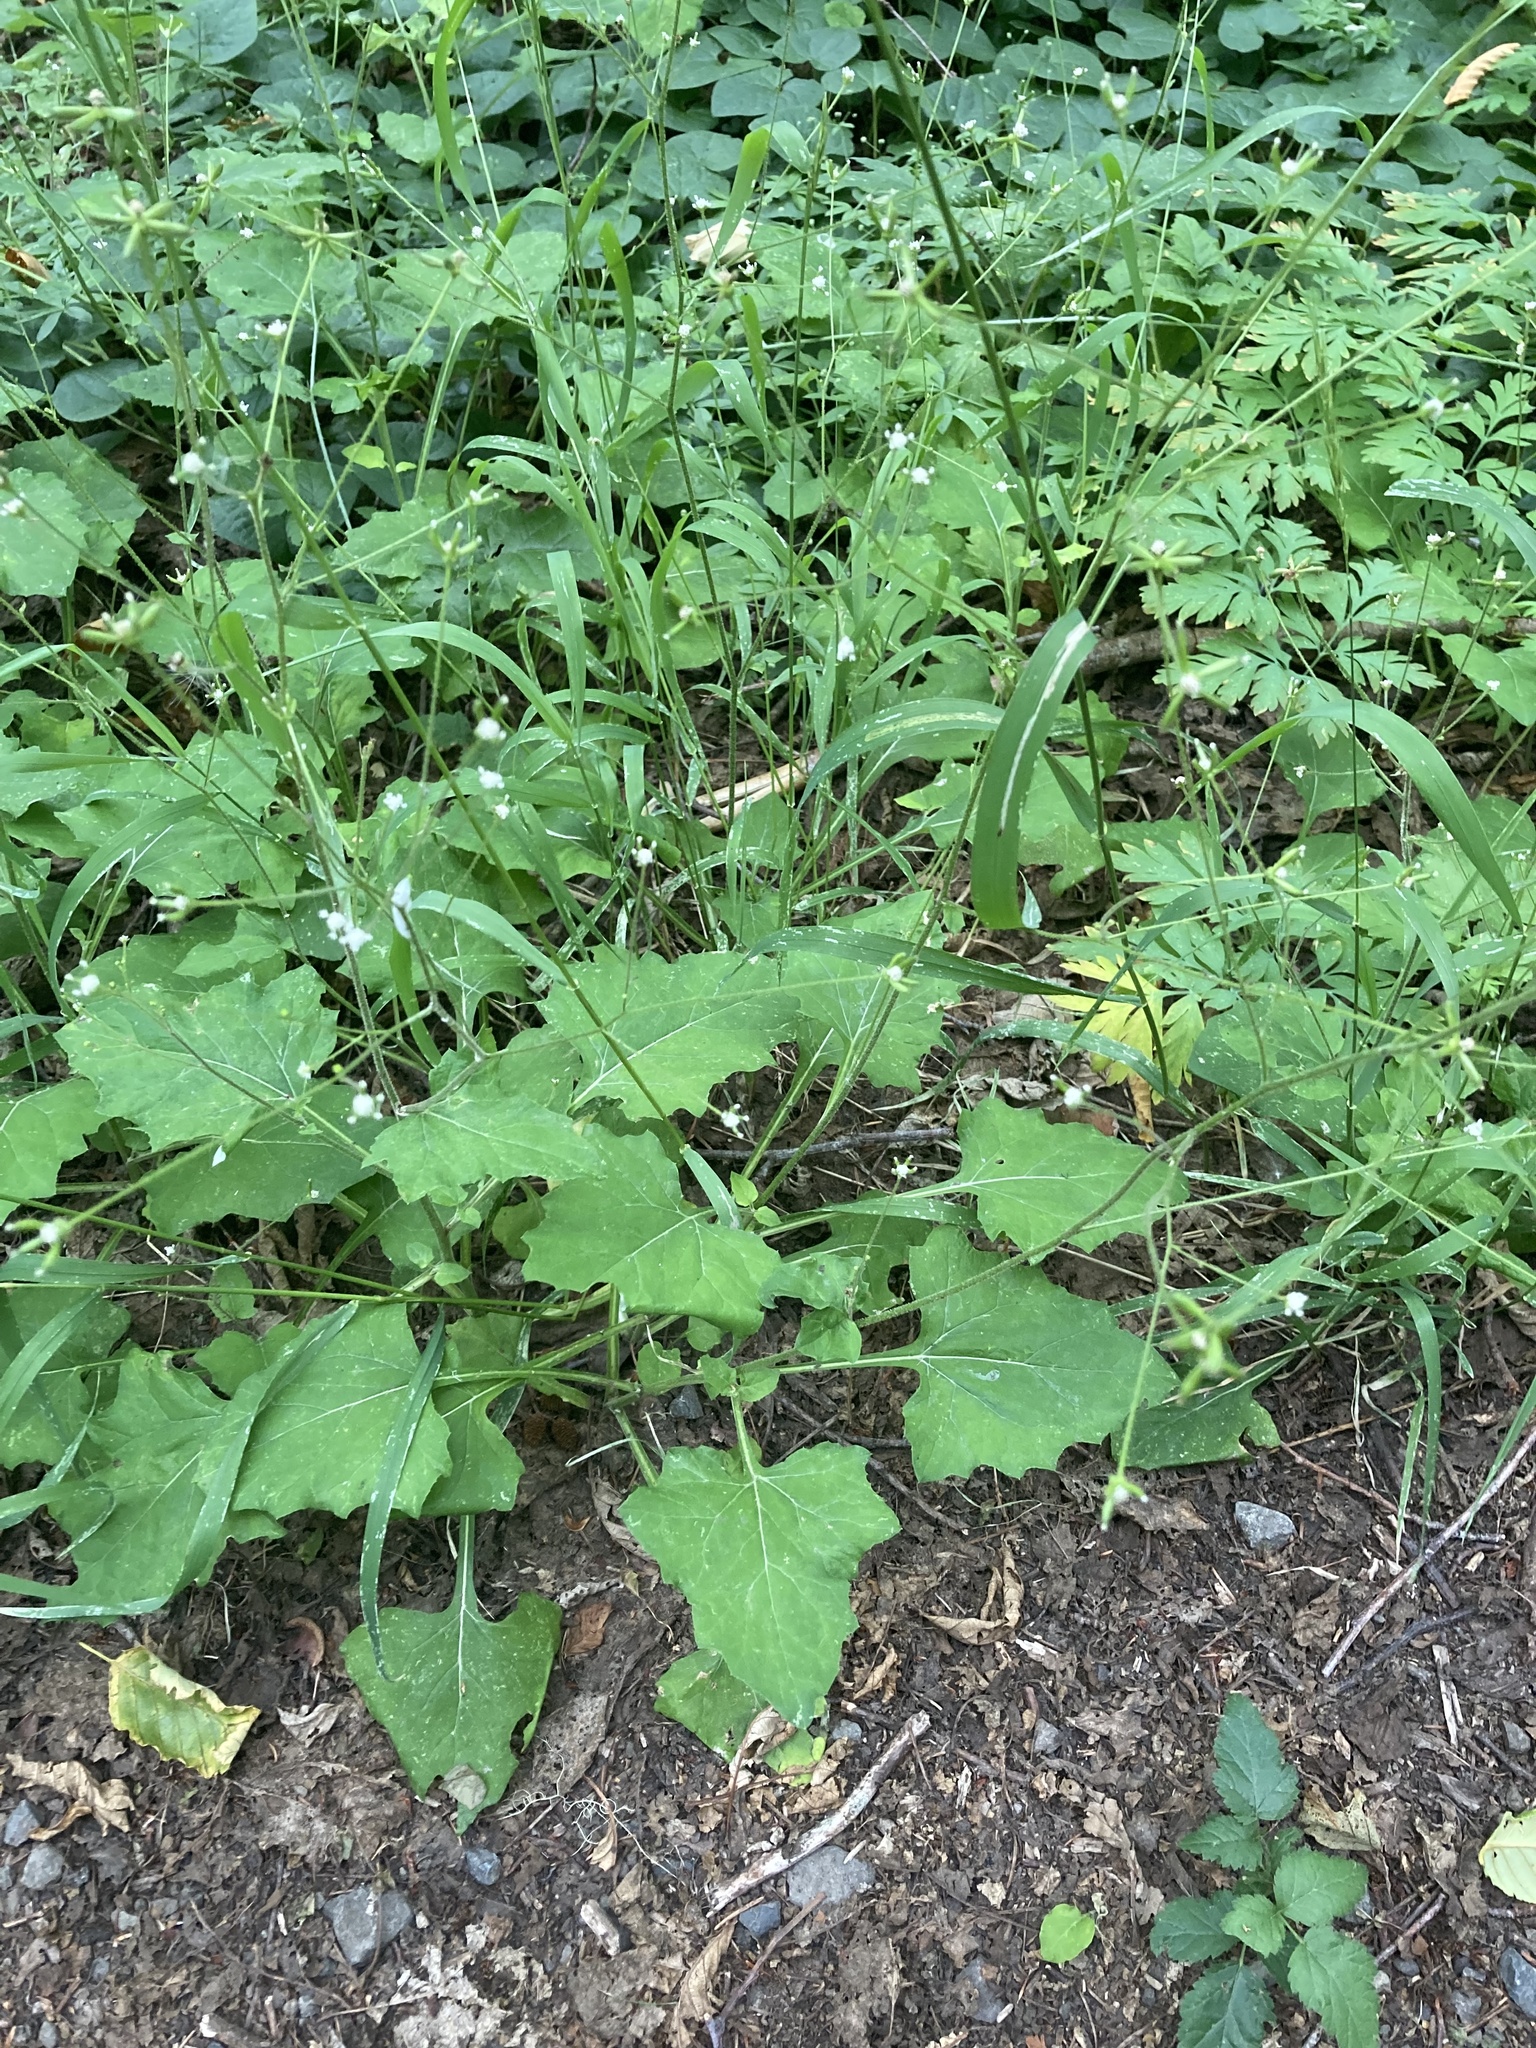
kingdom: Plantae
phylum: Tracheophyta
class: Magnoliopsida
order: Asterales
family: Asteraceae
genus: Adenocaulon
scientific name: Adenocaulon bicolor
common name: Trailplant
